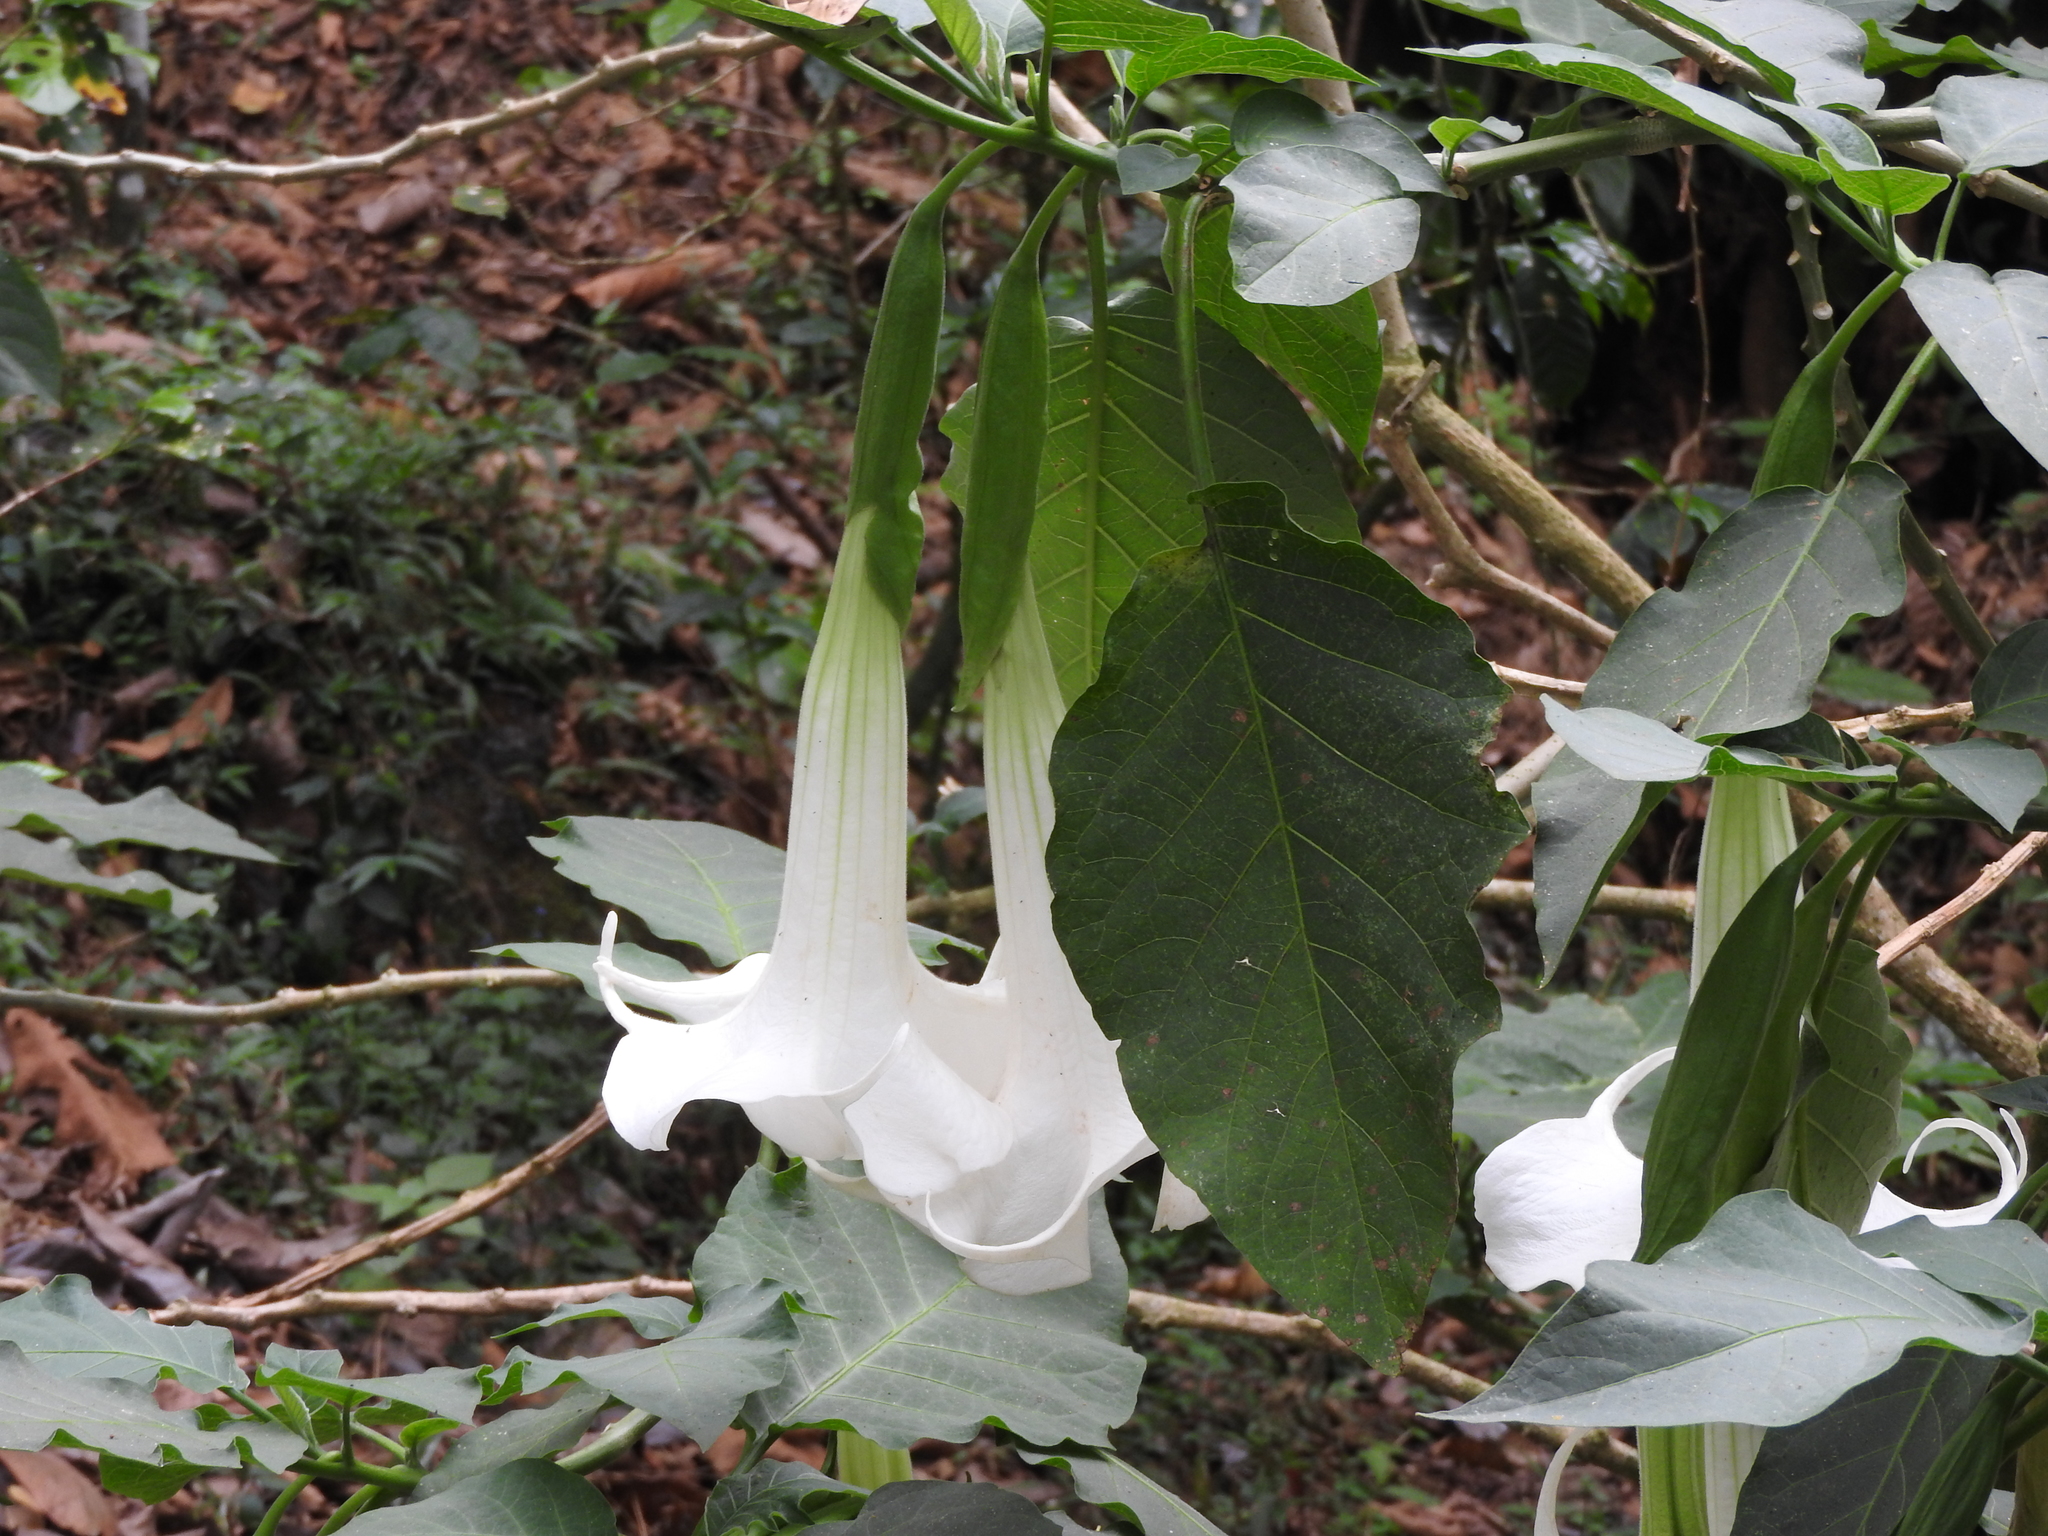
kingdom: Plantae
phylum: Tracheophyta
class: Magnoliopsida
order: Solanales
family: Solanaceae
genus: Brugmansia
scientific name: Brugmansia candida
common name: Angel's-trumpet
